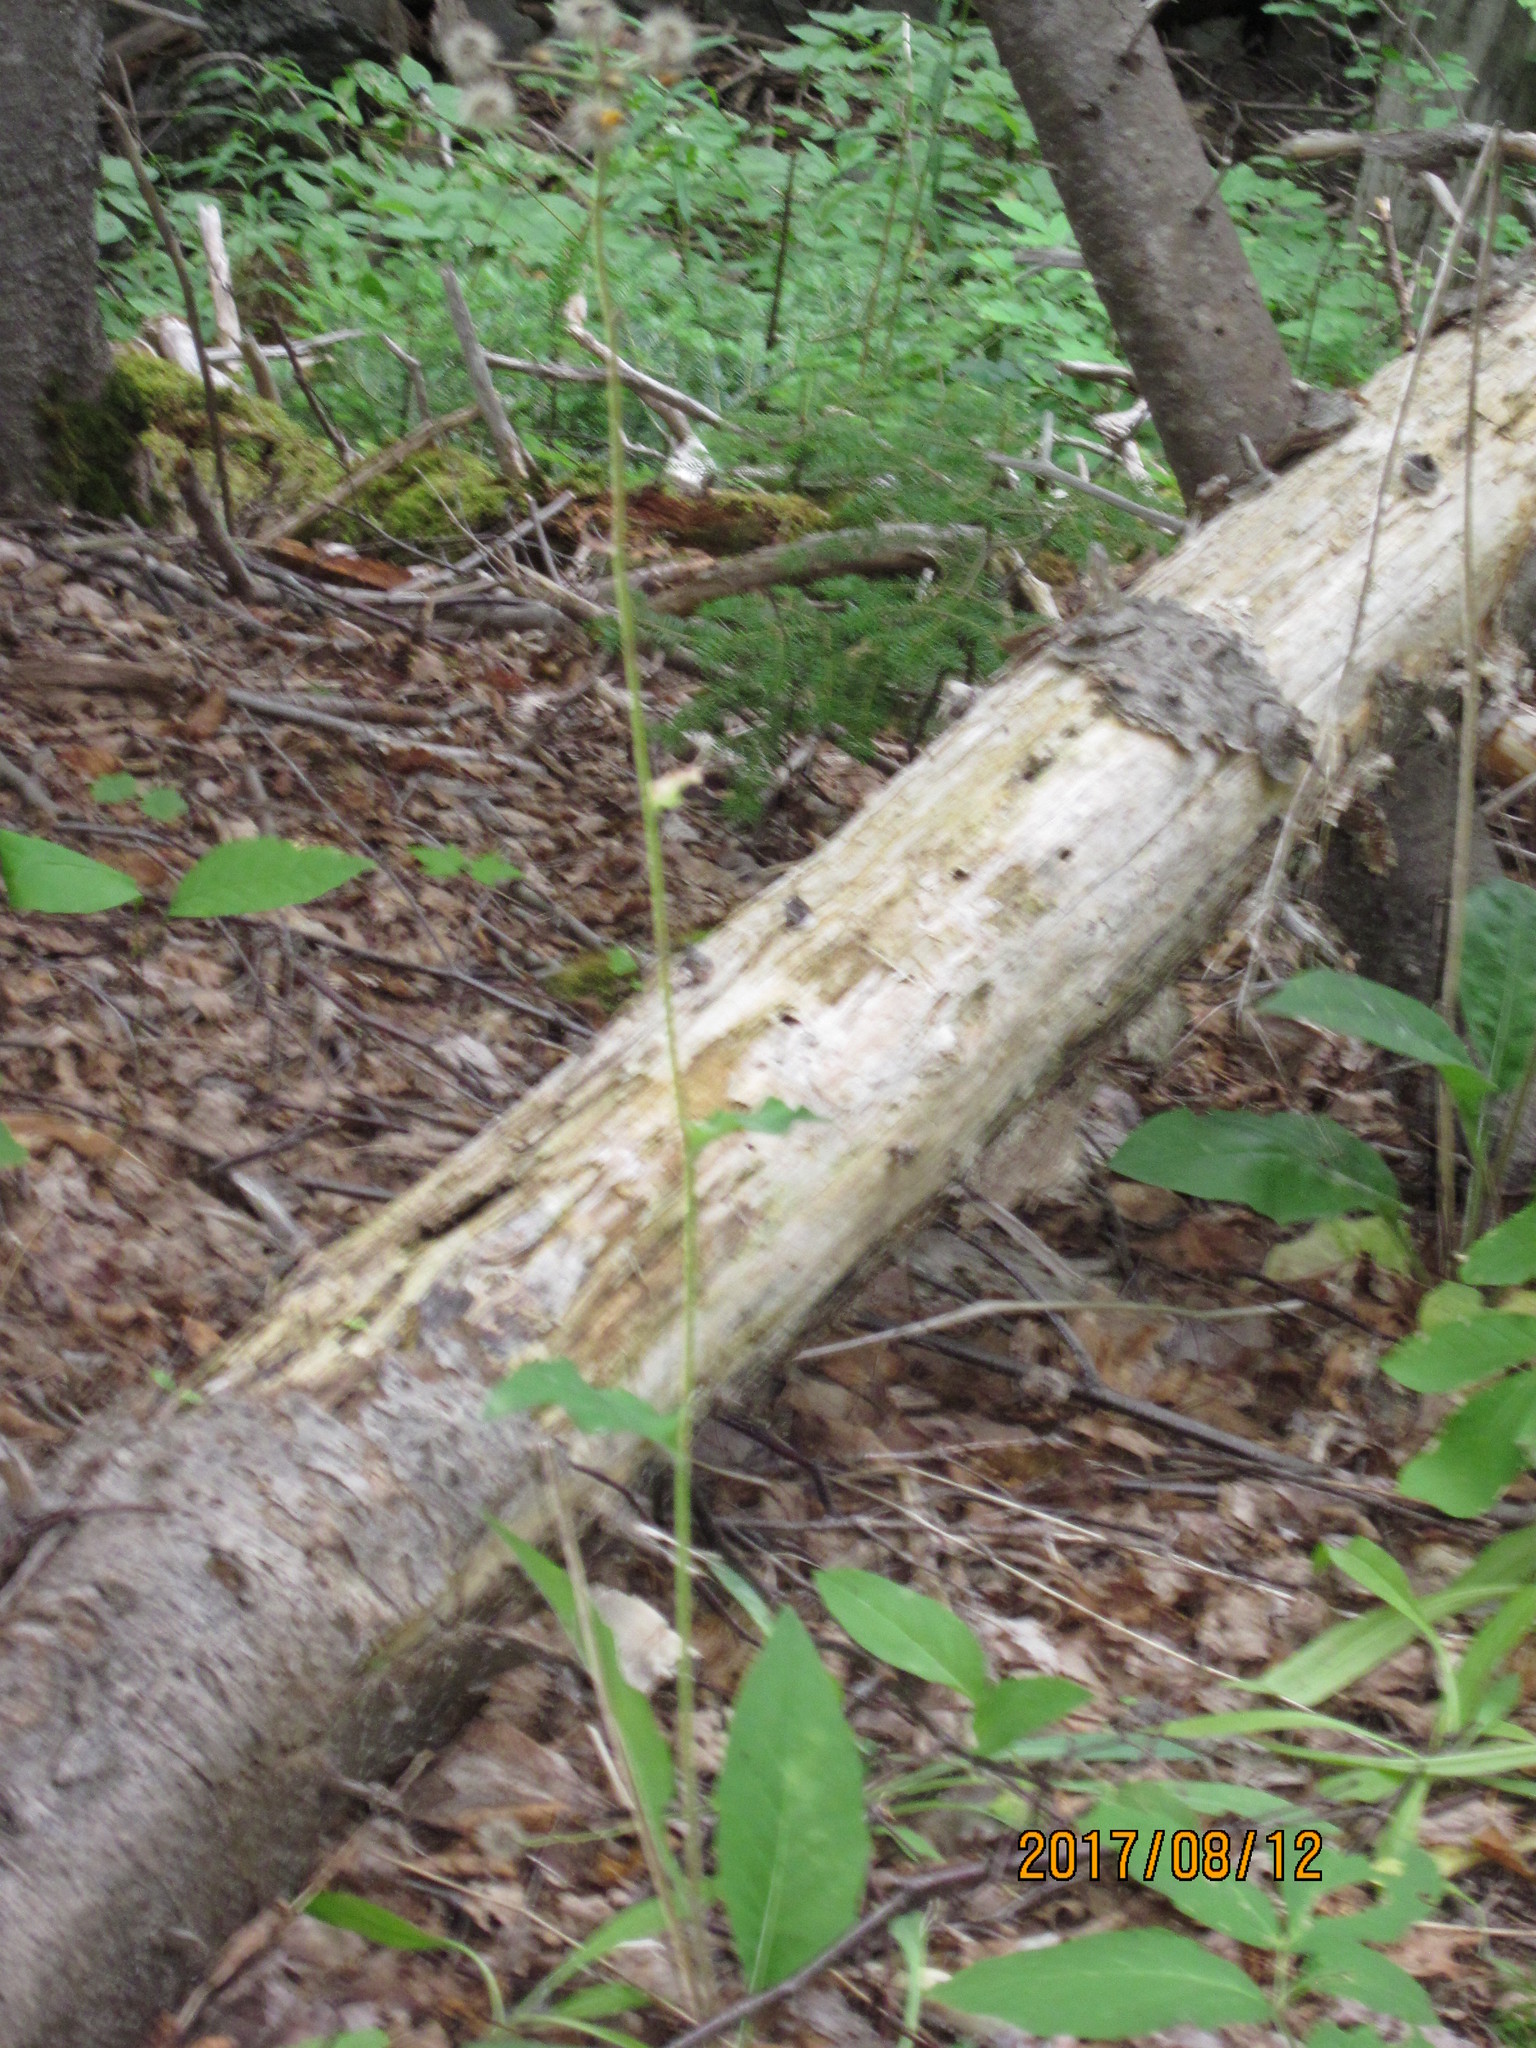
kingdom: Plantae
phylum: Tracheophyta
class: Magnoliopsida
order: Asterales
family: Asteraceae
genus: Hieracium
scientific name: Hieracium lachenalii
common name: Common hawkweed
